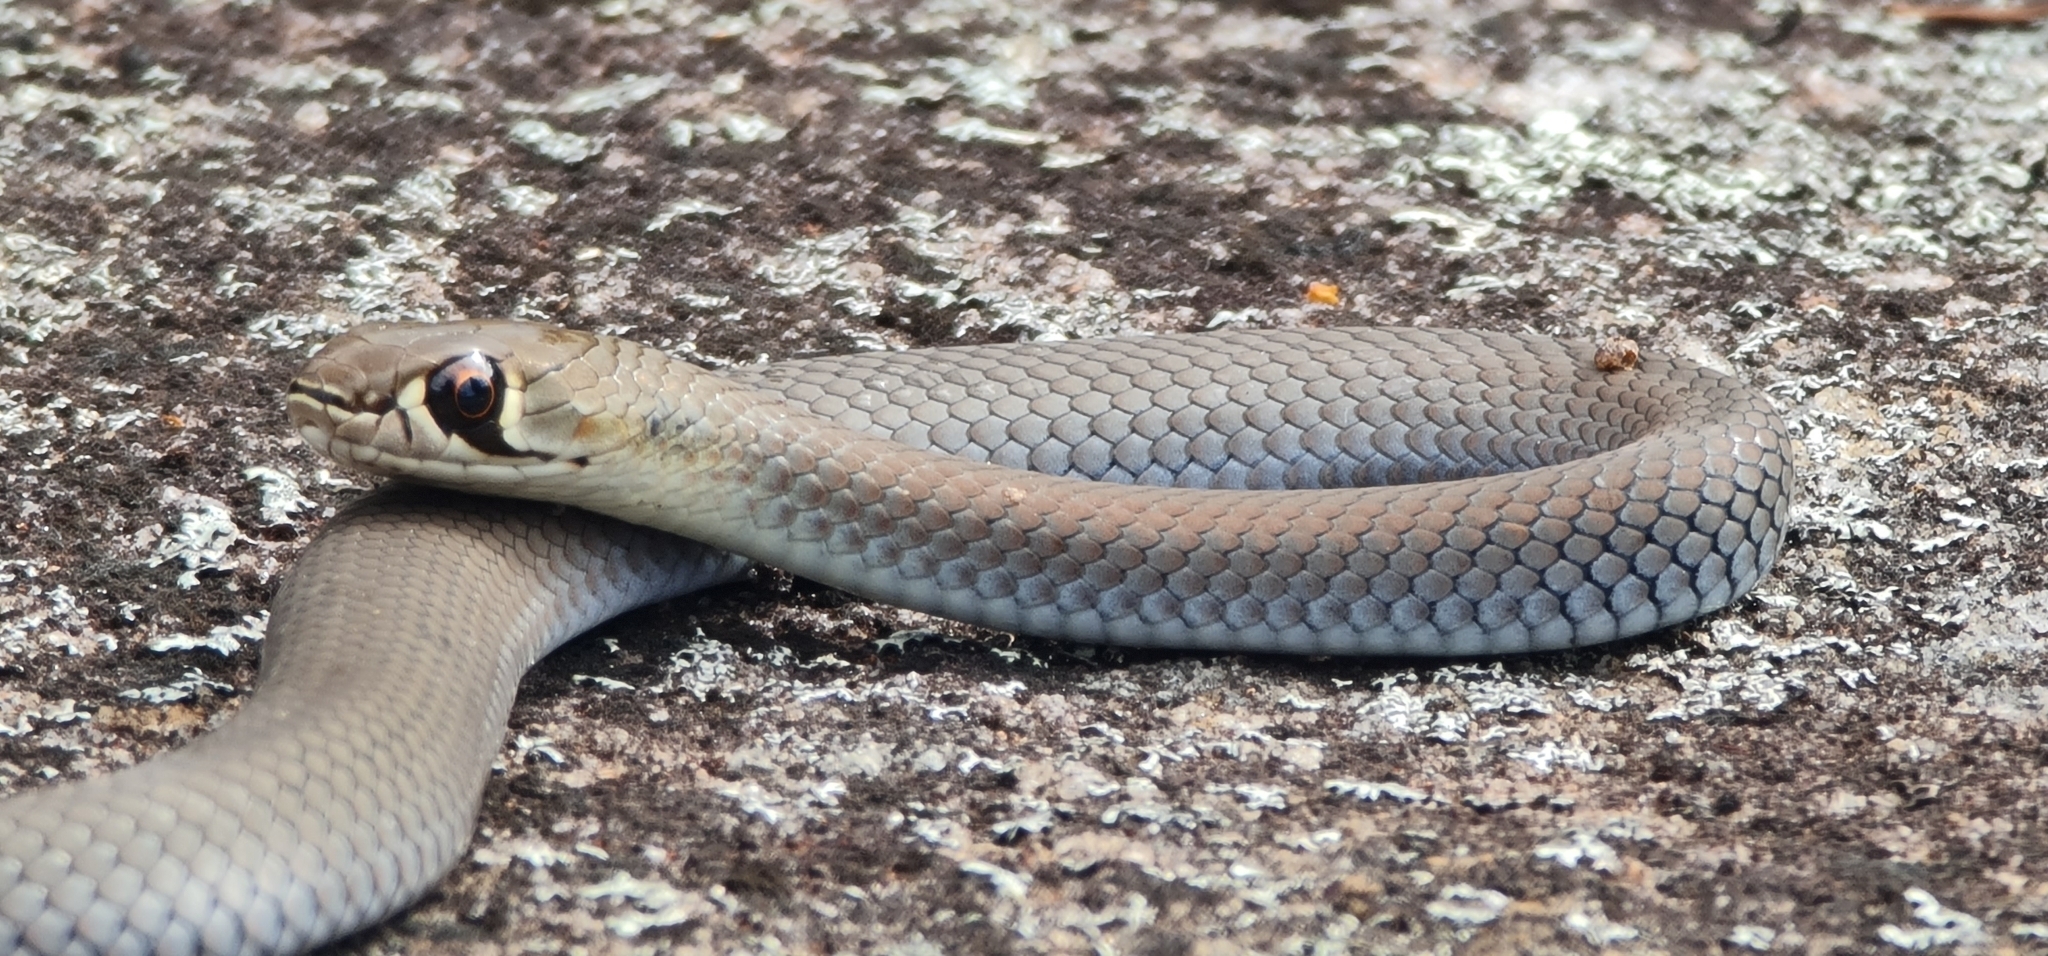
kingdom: Animalia
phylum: Chordata
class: Squamata
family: Elapidae
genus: Demansia
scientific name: Demansia psammophis
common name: Yellow-faced whip snake
